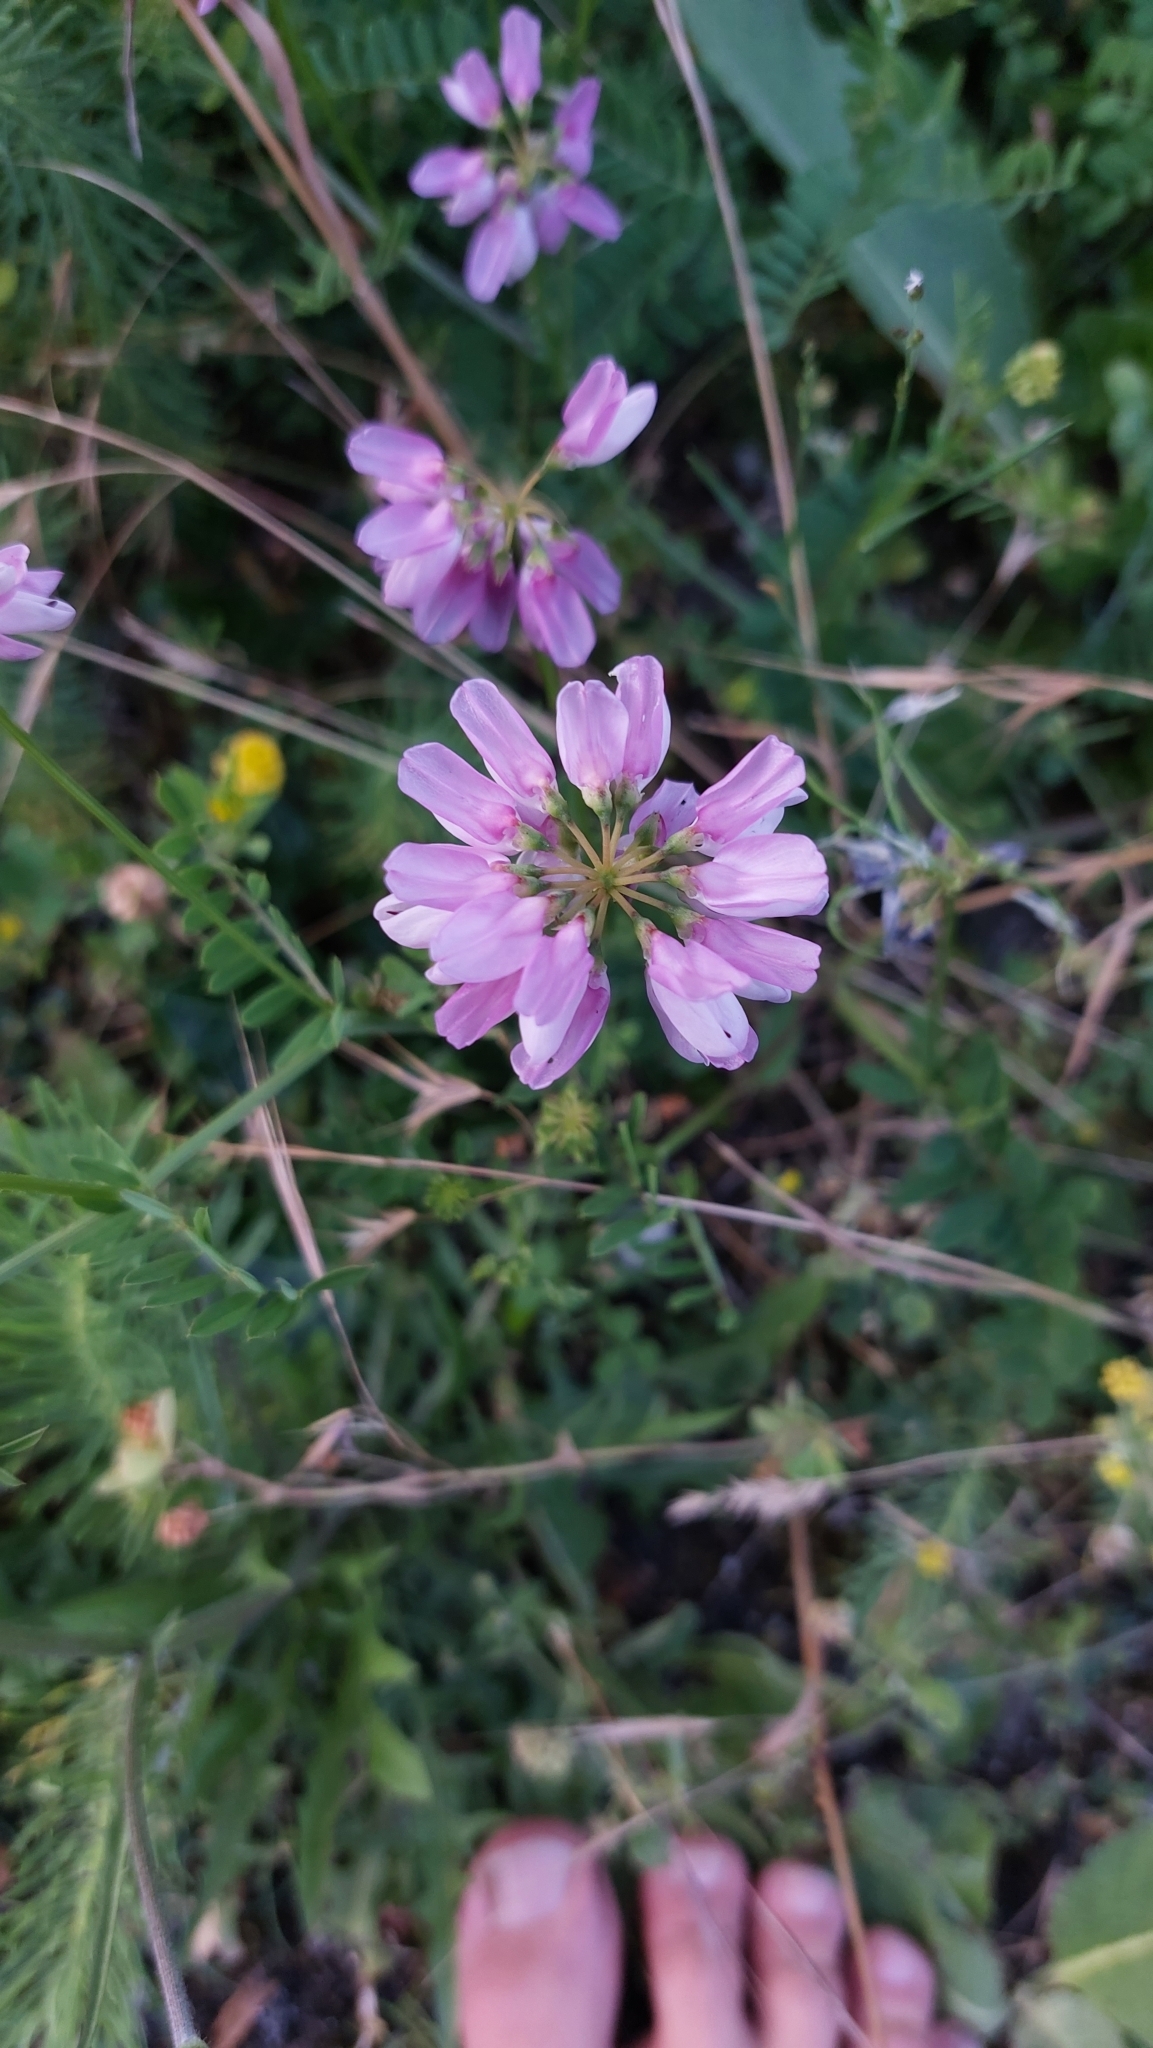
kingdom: Plantae
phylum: Tracheophyta
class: Magnoliopsida
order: Fabales
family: Fabaceae
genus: Coronilla
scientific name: Coronilla varia
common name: Crownvetch
